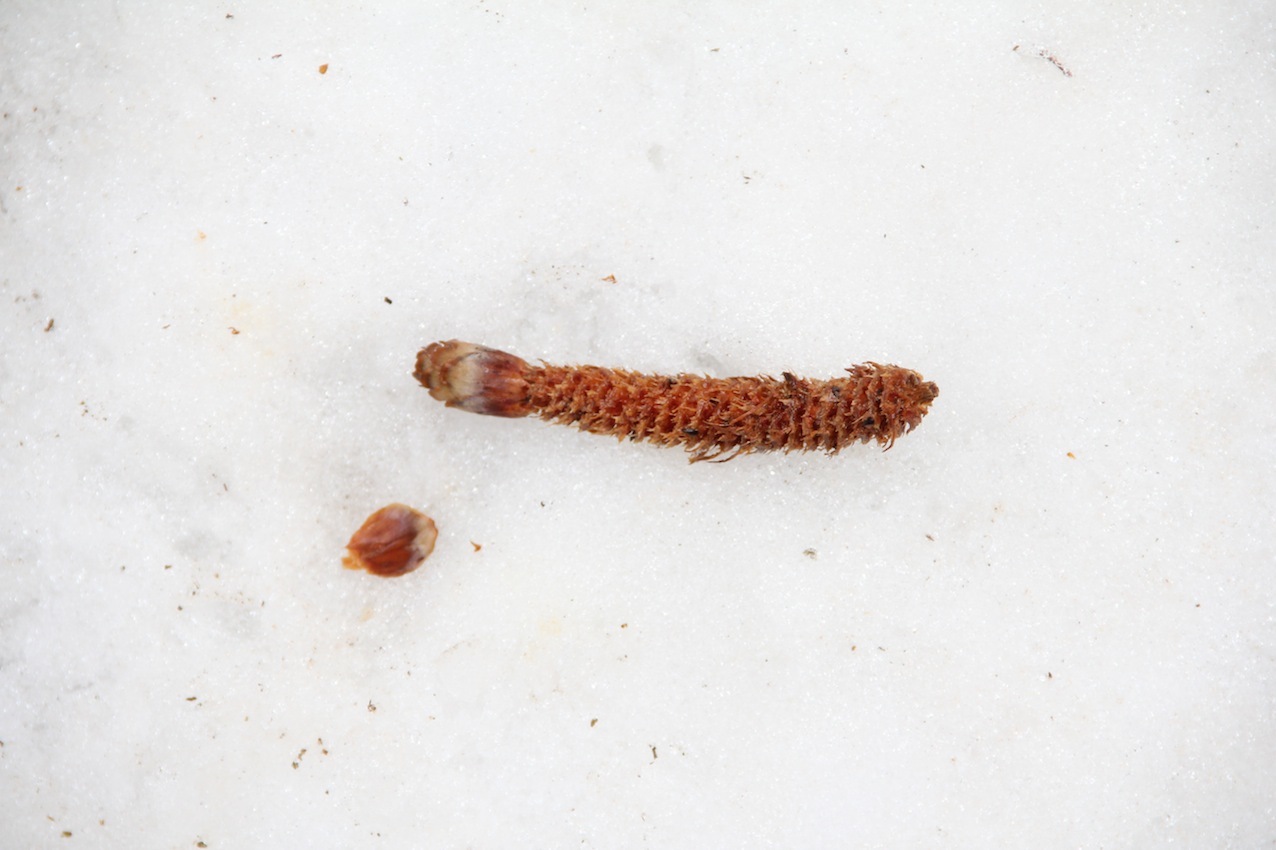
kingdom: Animalia
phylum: Chordata
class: Mammalia
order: Rodentia
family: Sciuridae
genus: Sciurus
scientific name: Sciurus vulgaris
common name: Eurasian red squirrel
